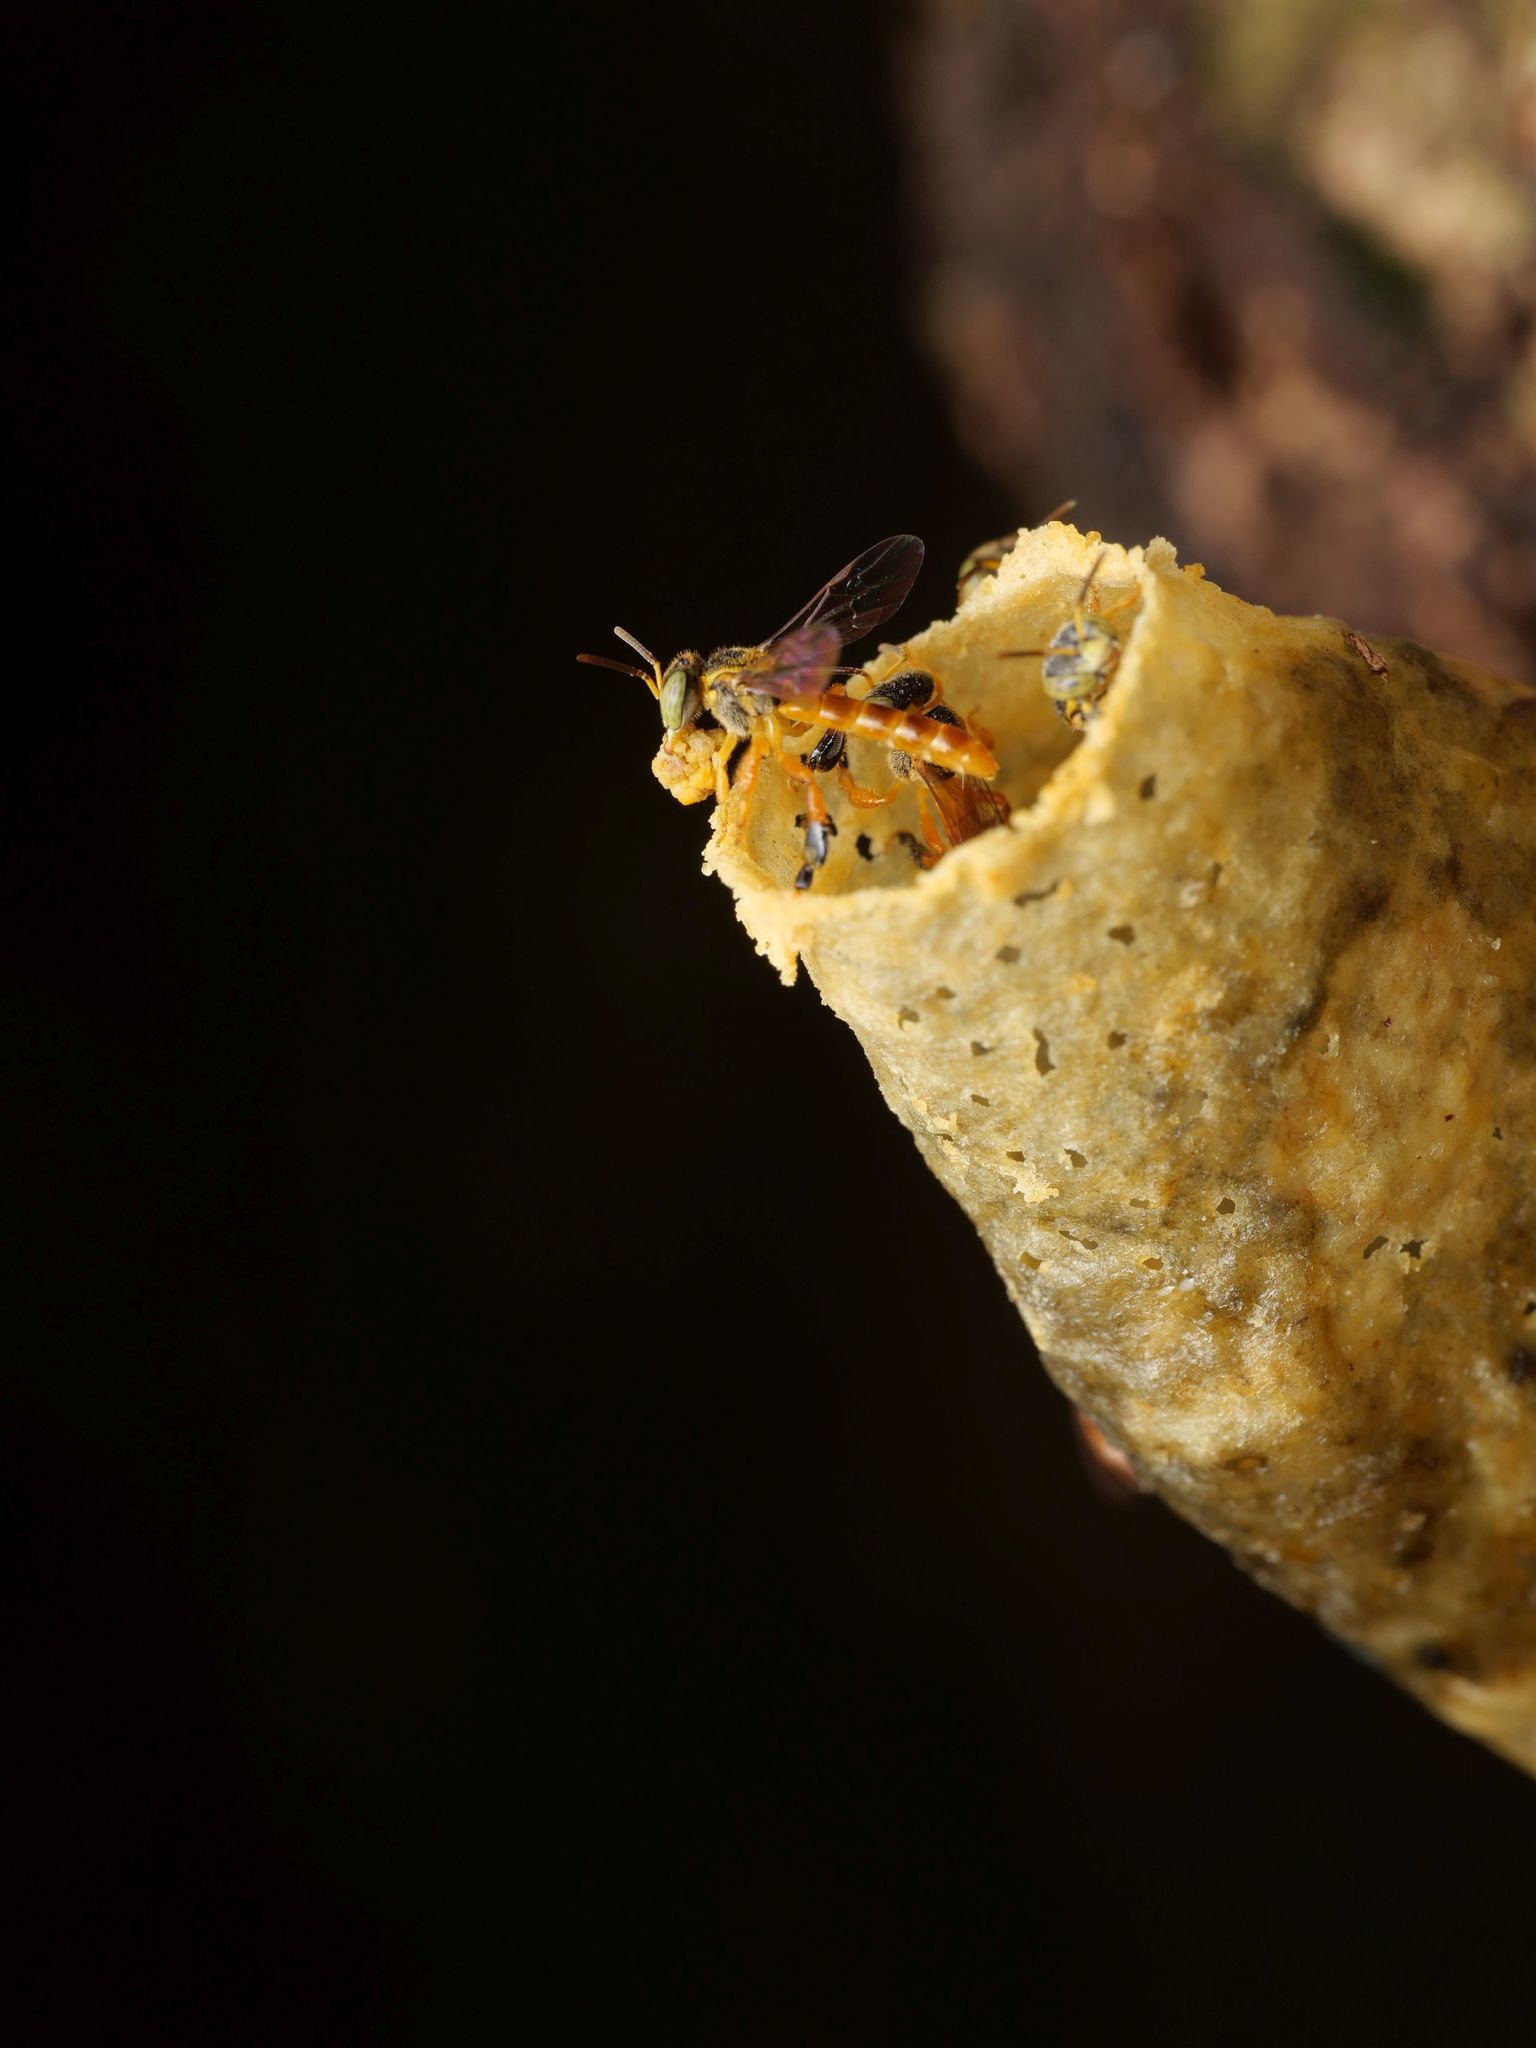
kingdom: Animalia
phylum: Arthropoda
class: Insecta
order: Hymenoptera
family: Apidae
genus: Tetragonisca
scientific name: Tetragonisca angustula
